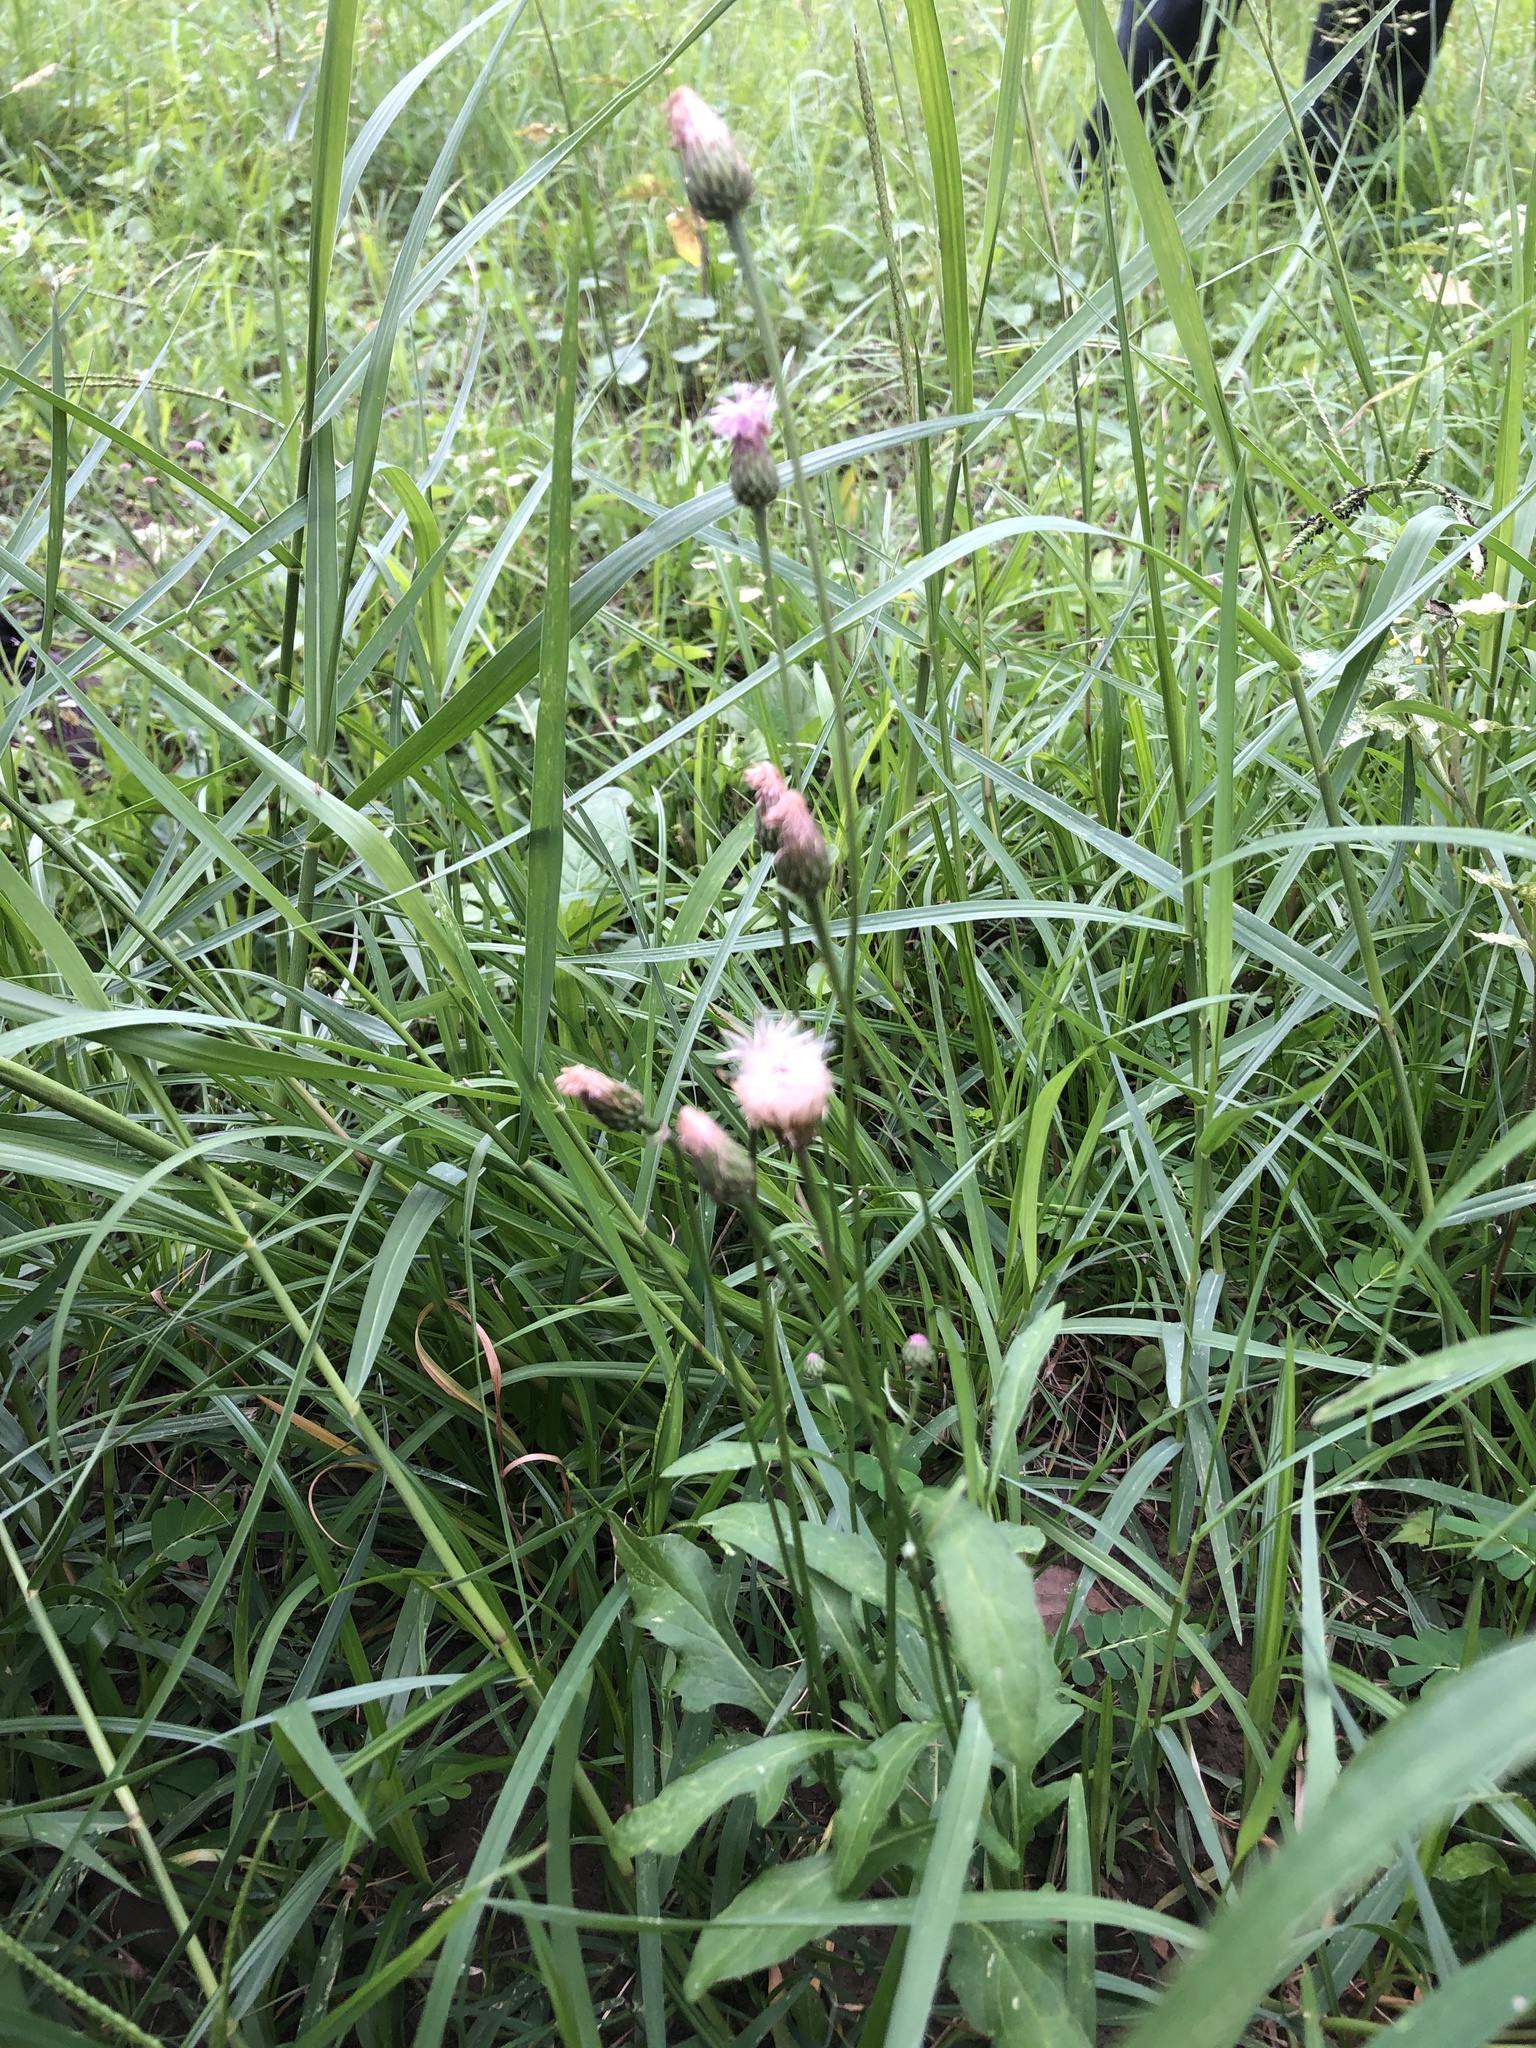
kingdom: Plantae
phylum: Tracheophyta
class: Magnoliopsida
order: Asterales
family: Asteraceae
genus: Saussurea
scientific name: Saussurea lyrata
